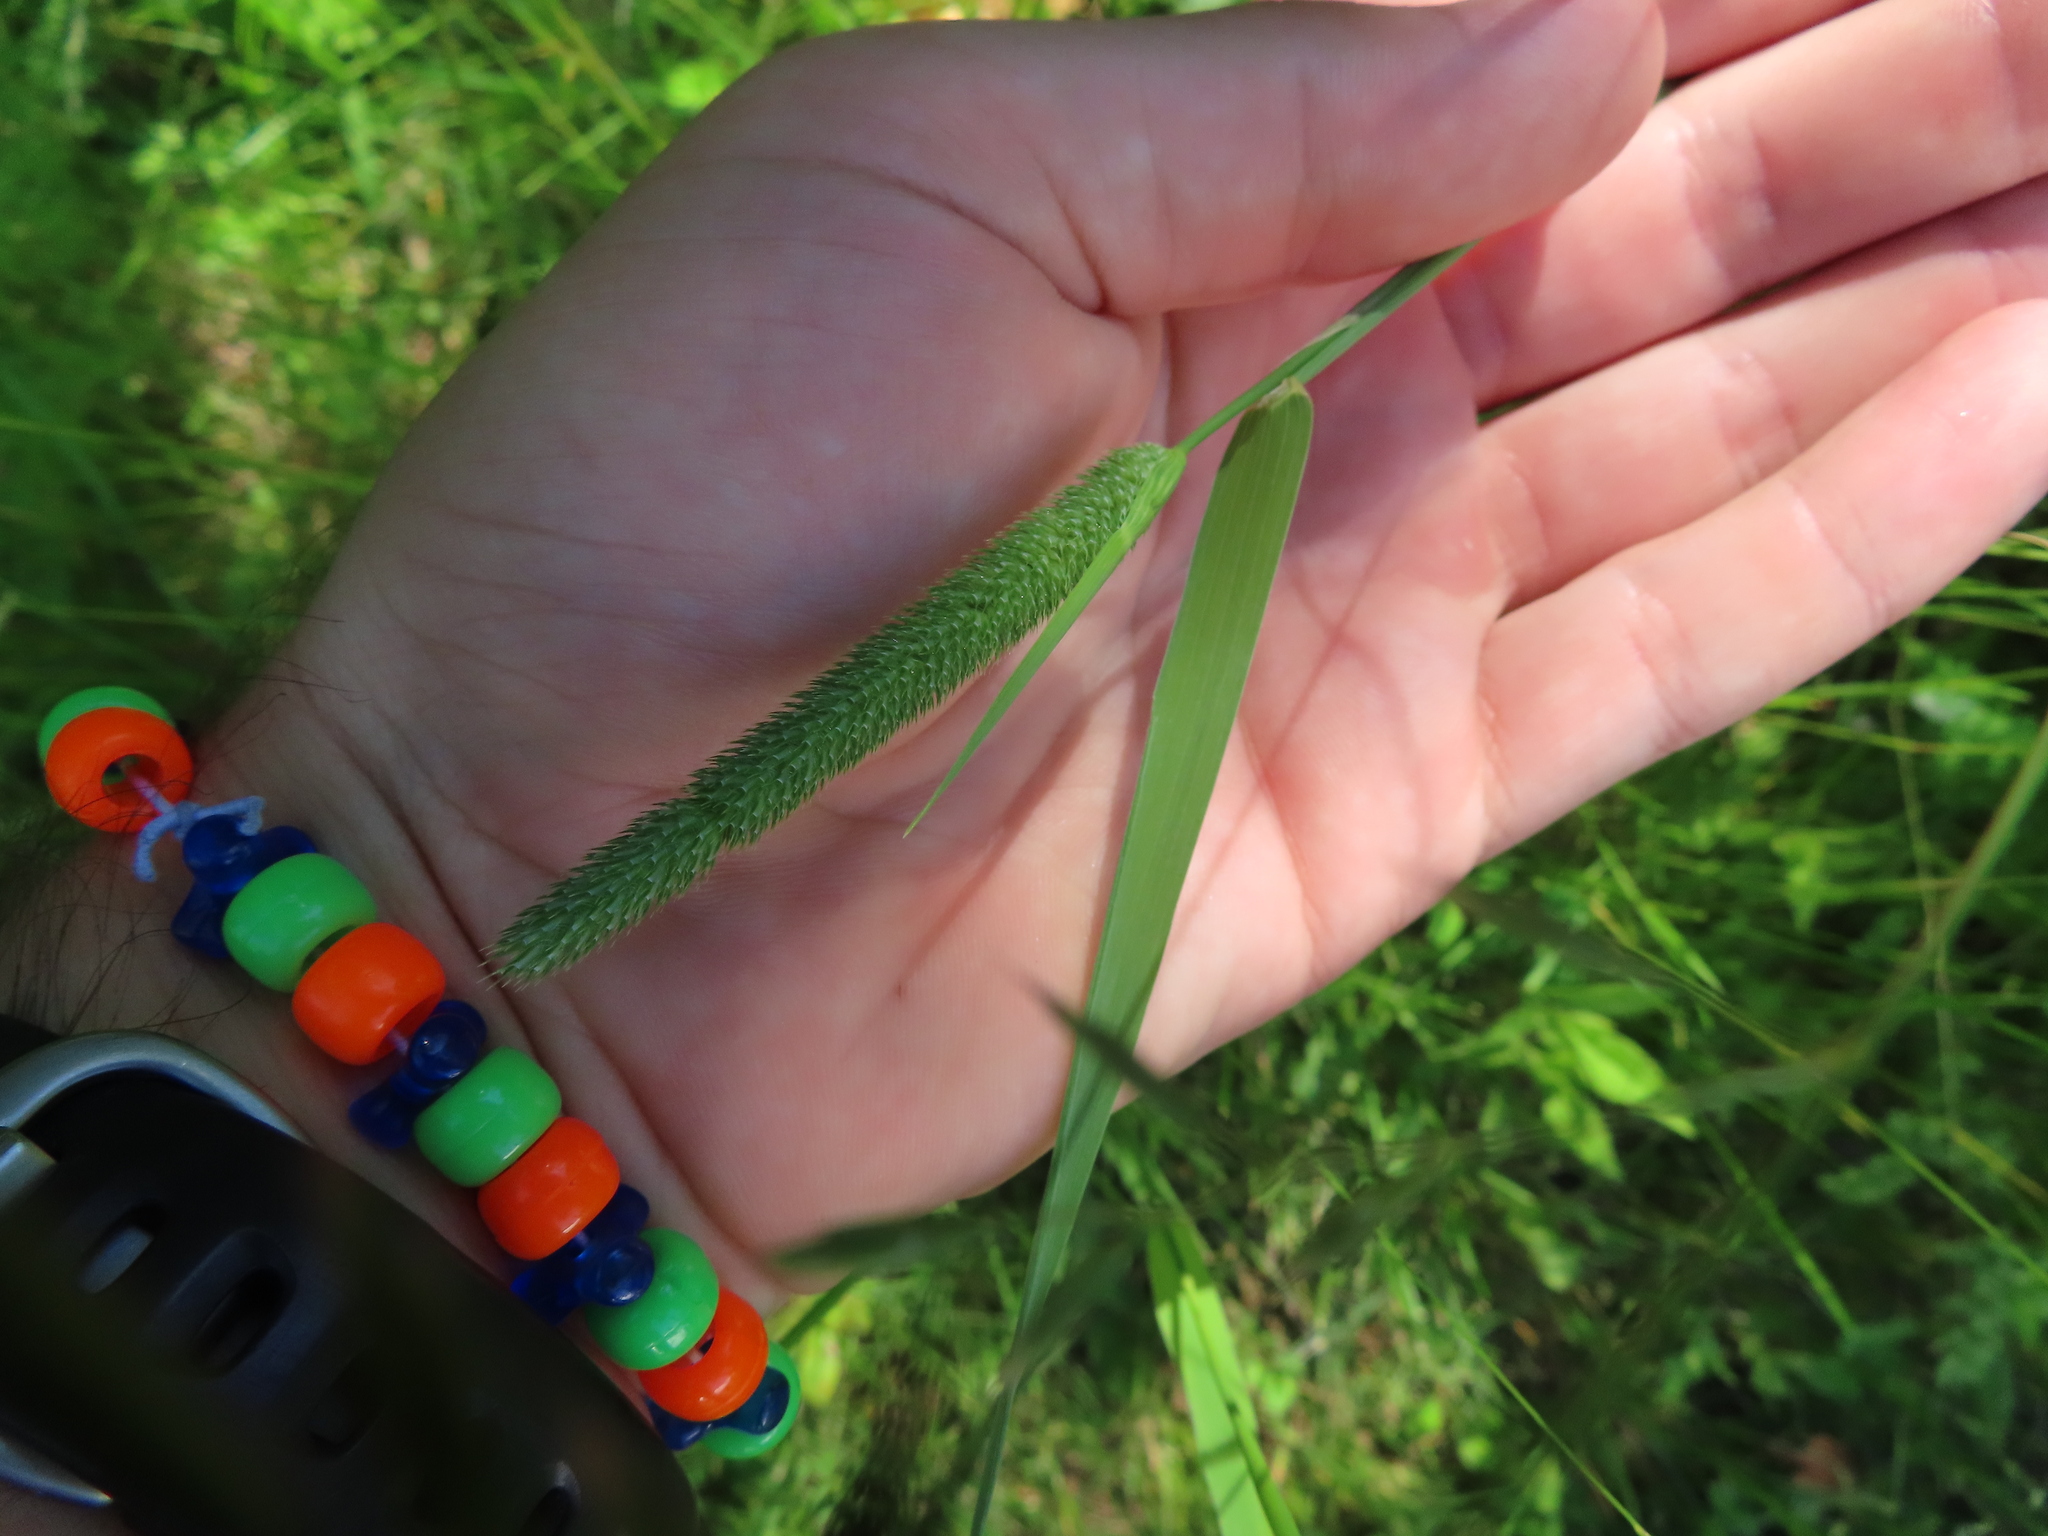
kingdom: Plantae
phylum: Tracheophyta
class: Liliopsida
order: Poales
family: Poaceae
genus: Phleum
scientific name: Phleum pratense
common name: Timothy grass
